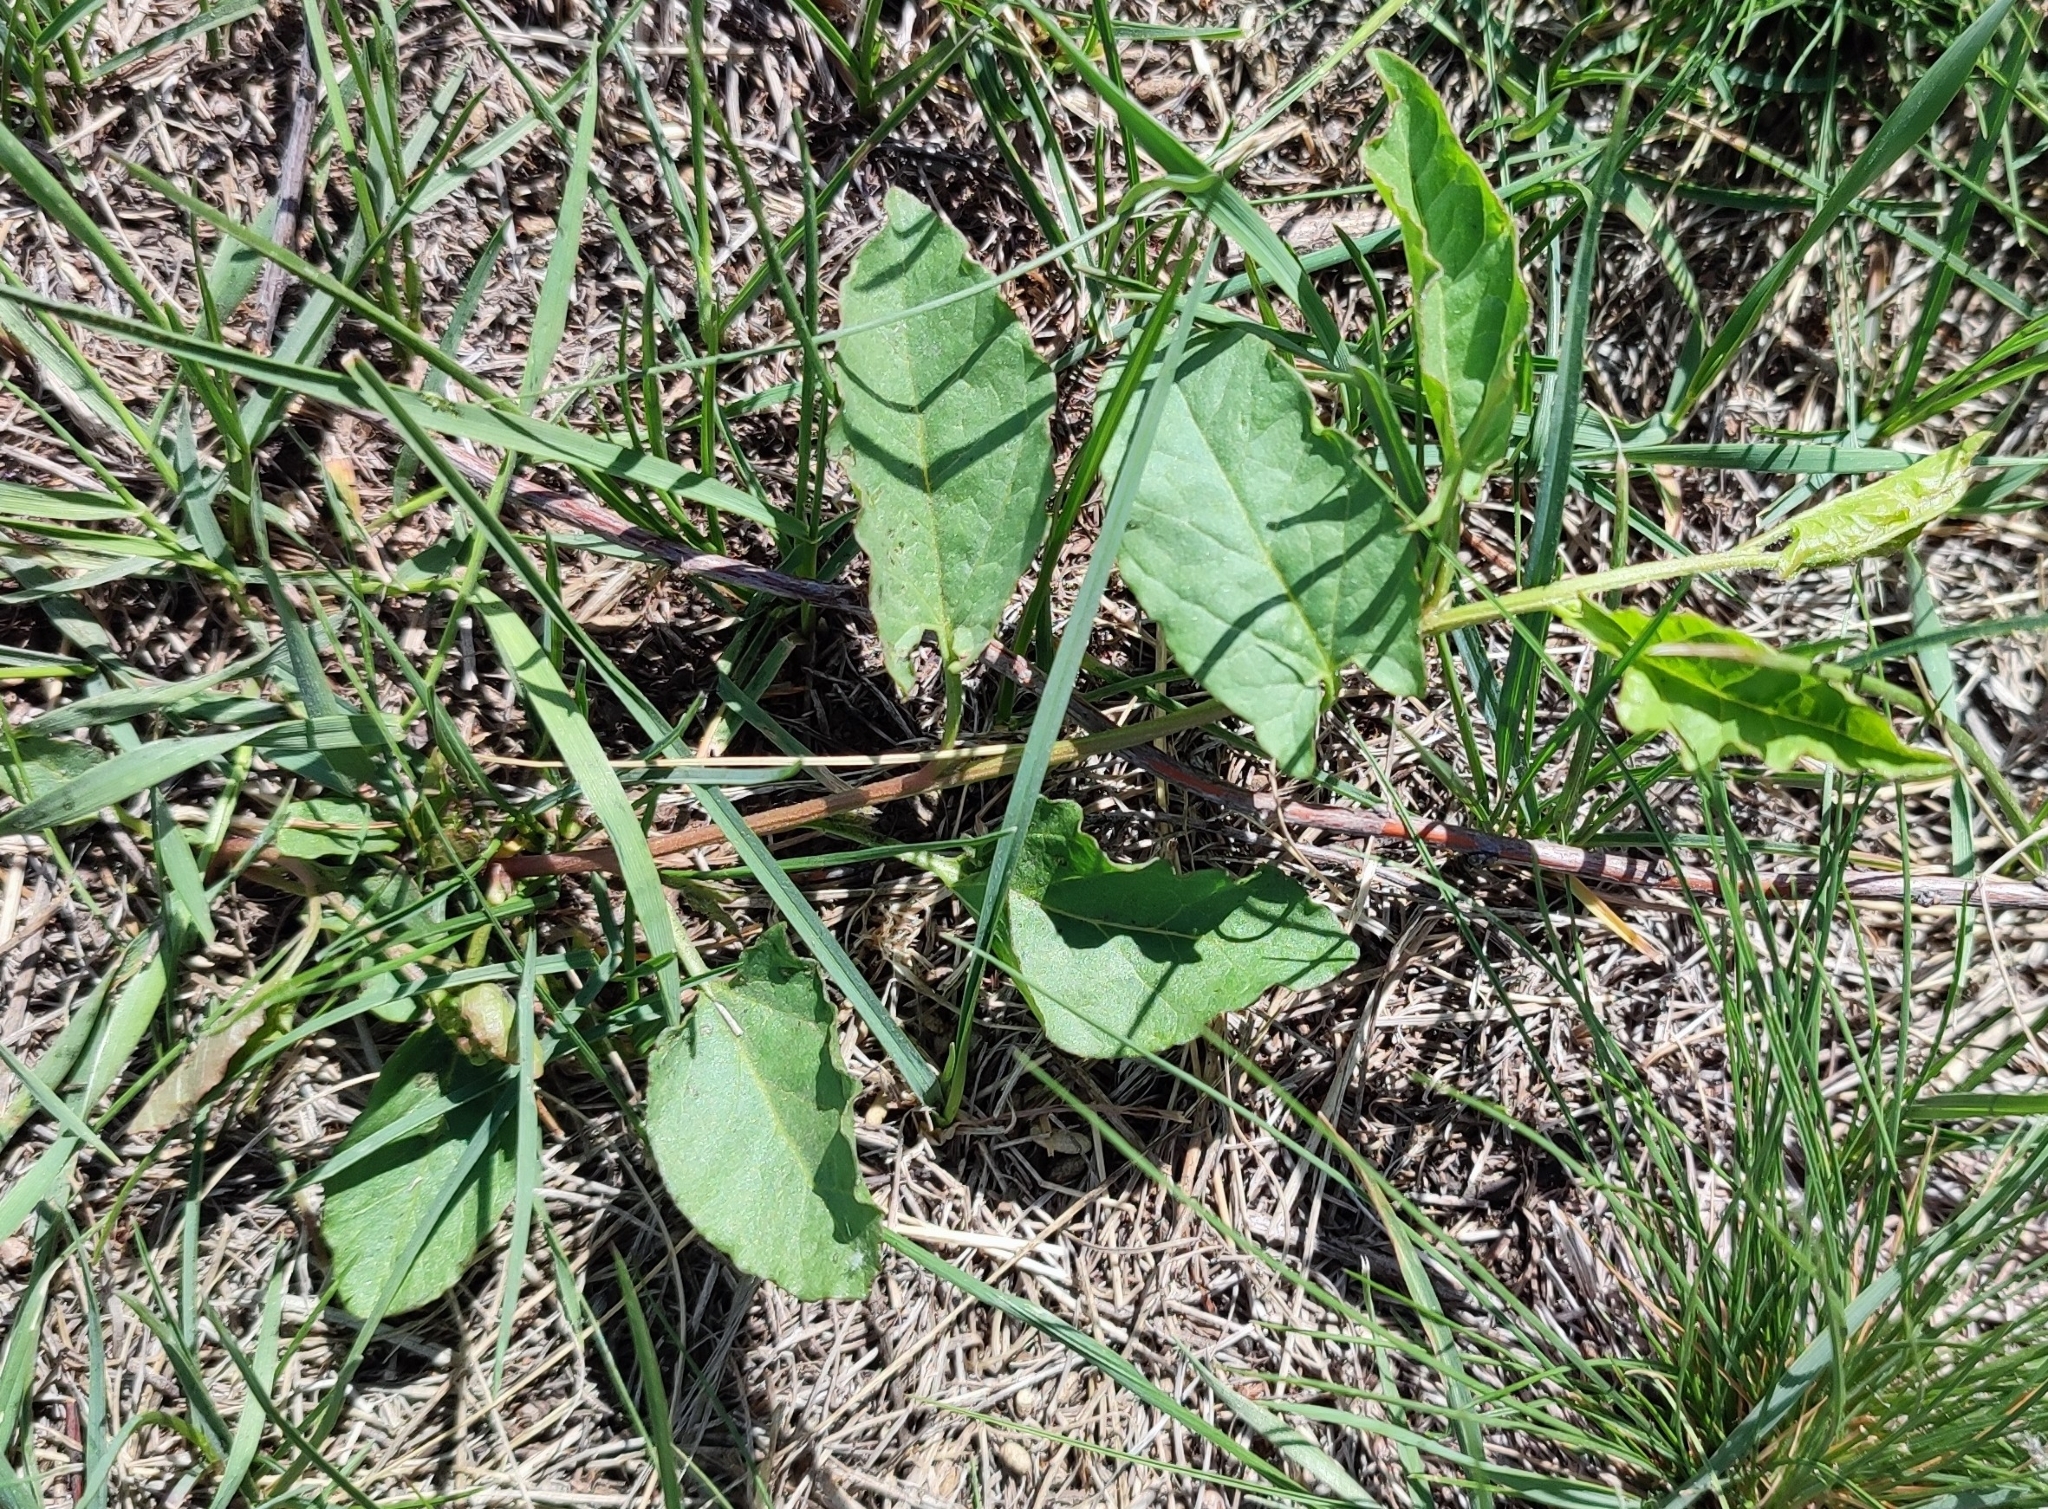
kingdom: Plantae
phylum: Tracheophyta
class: Magnoliopsida
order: Solanales
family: Convolvulaceae
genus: Convolvulus
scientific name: Convolvulus arvensis
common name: Field bindweed
